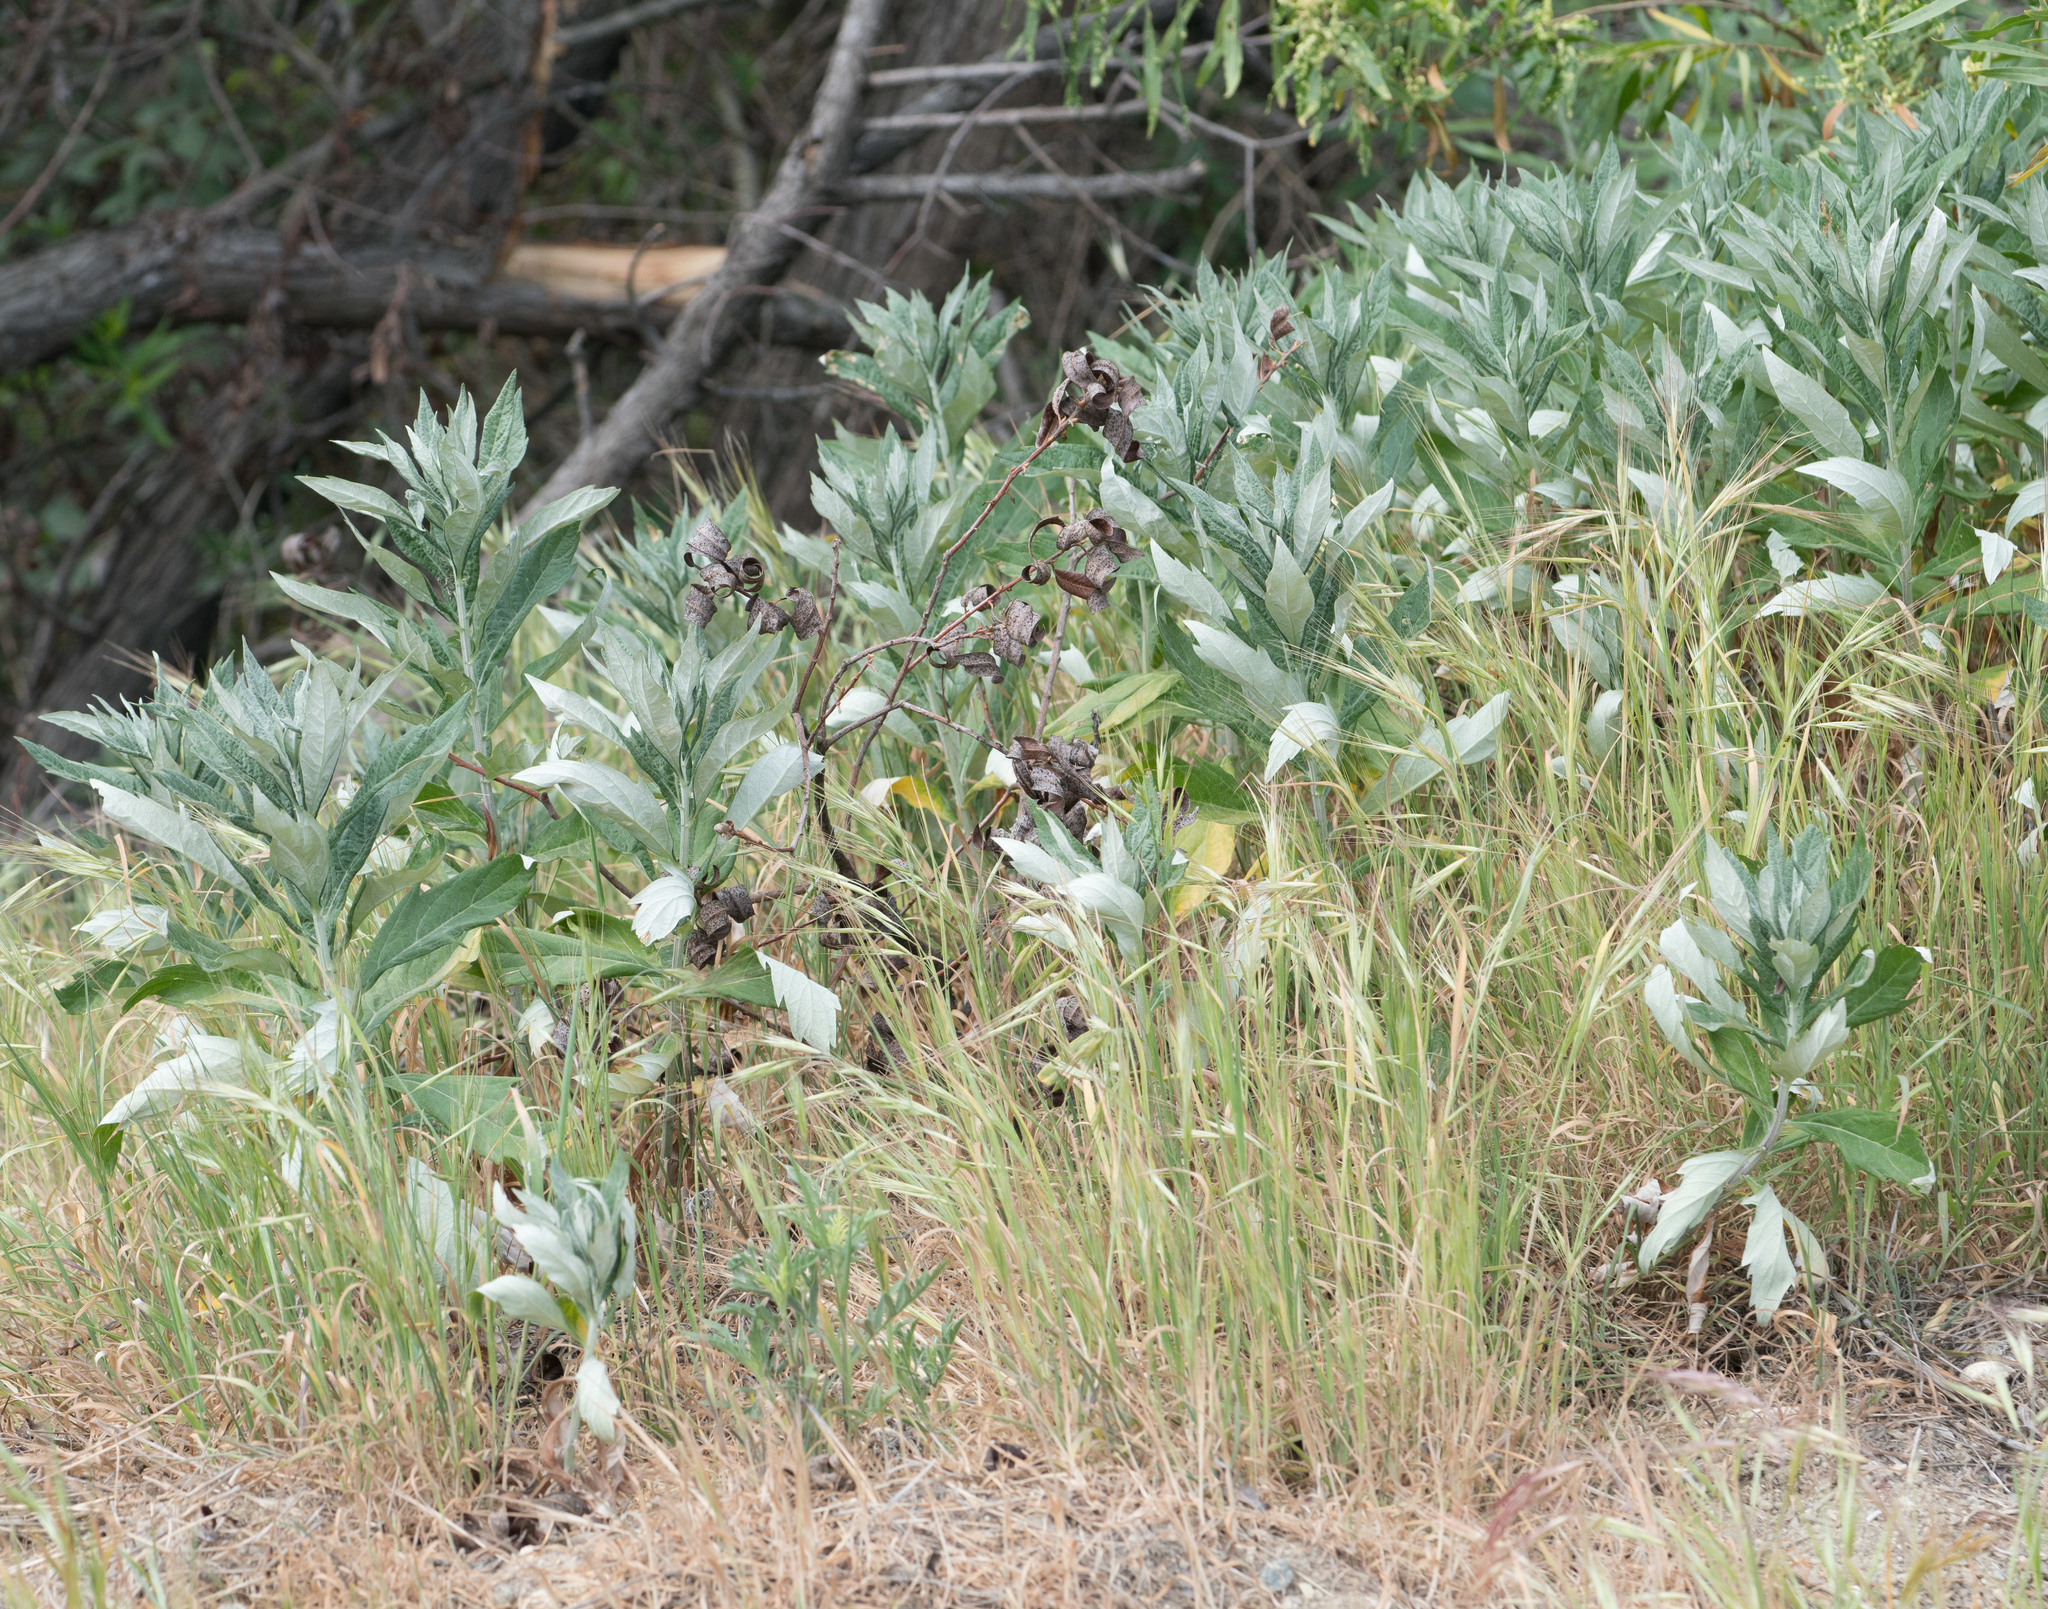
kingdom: Plantae
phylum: Tracheophyta
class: Magnoliopsida
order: Asterales
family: Asteraceae
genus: Artemisia
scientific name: Artemisia douglasiana
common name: Northwest mugwort
